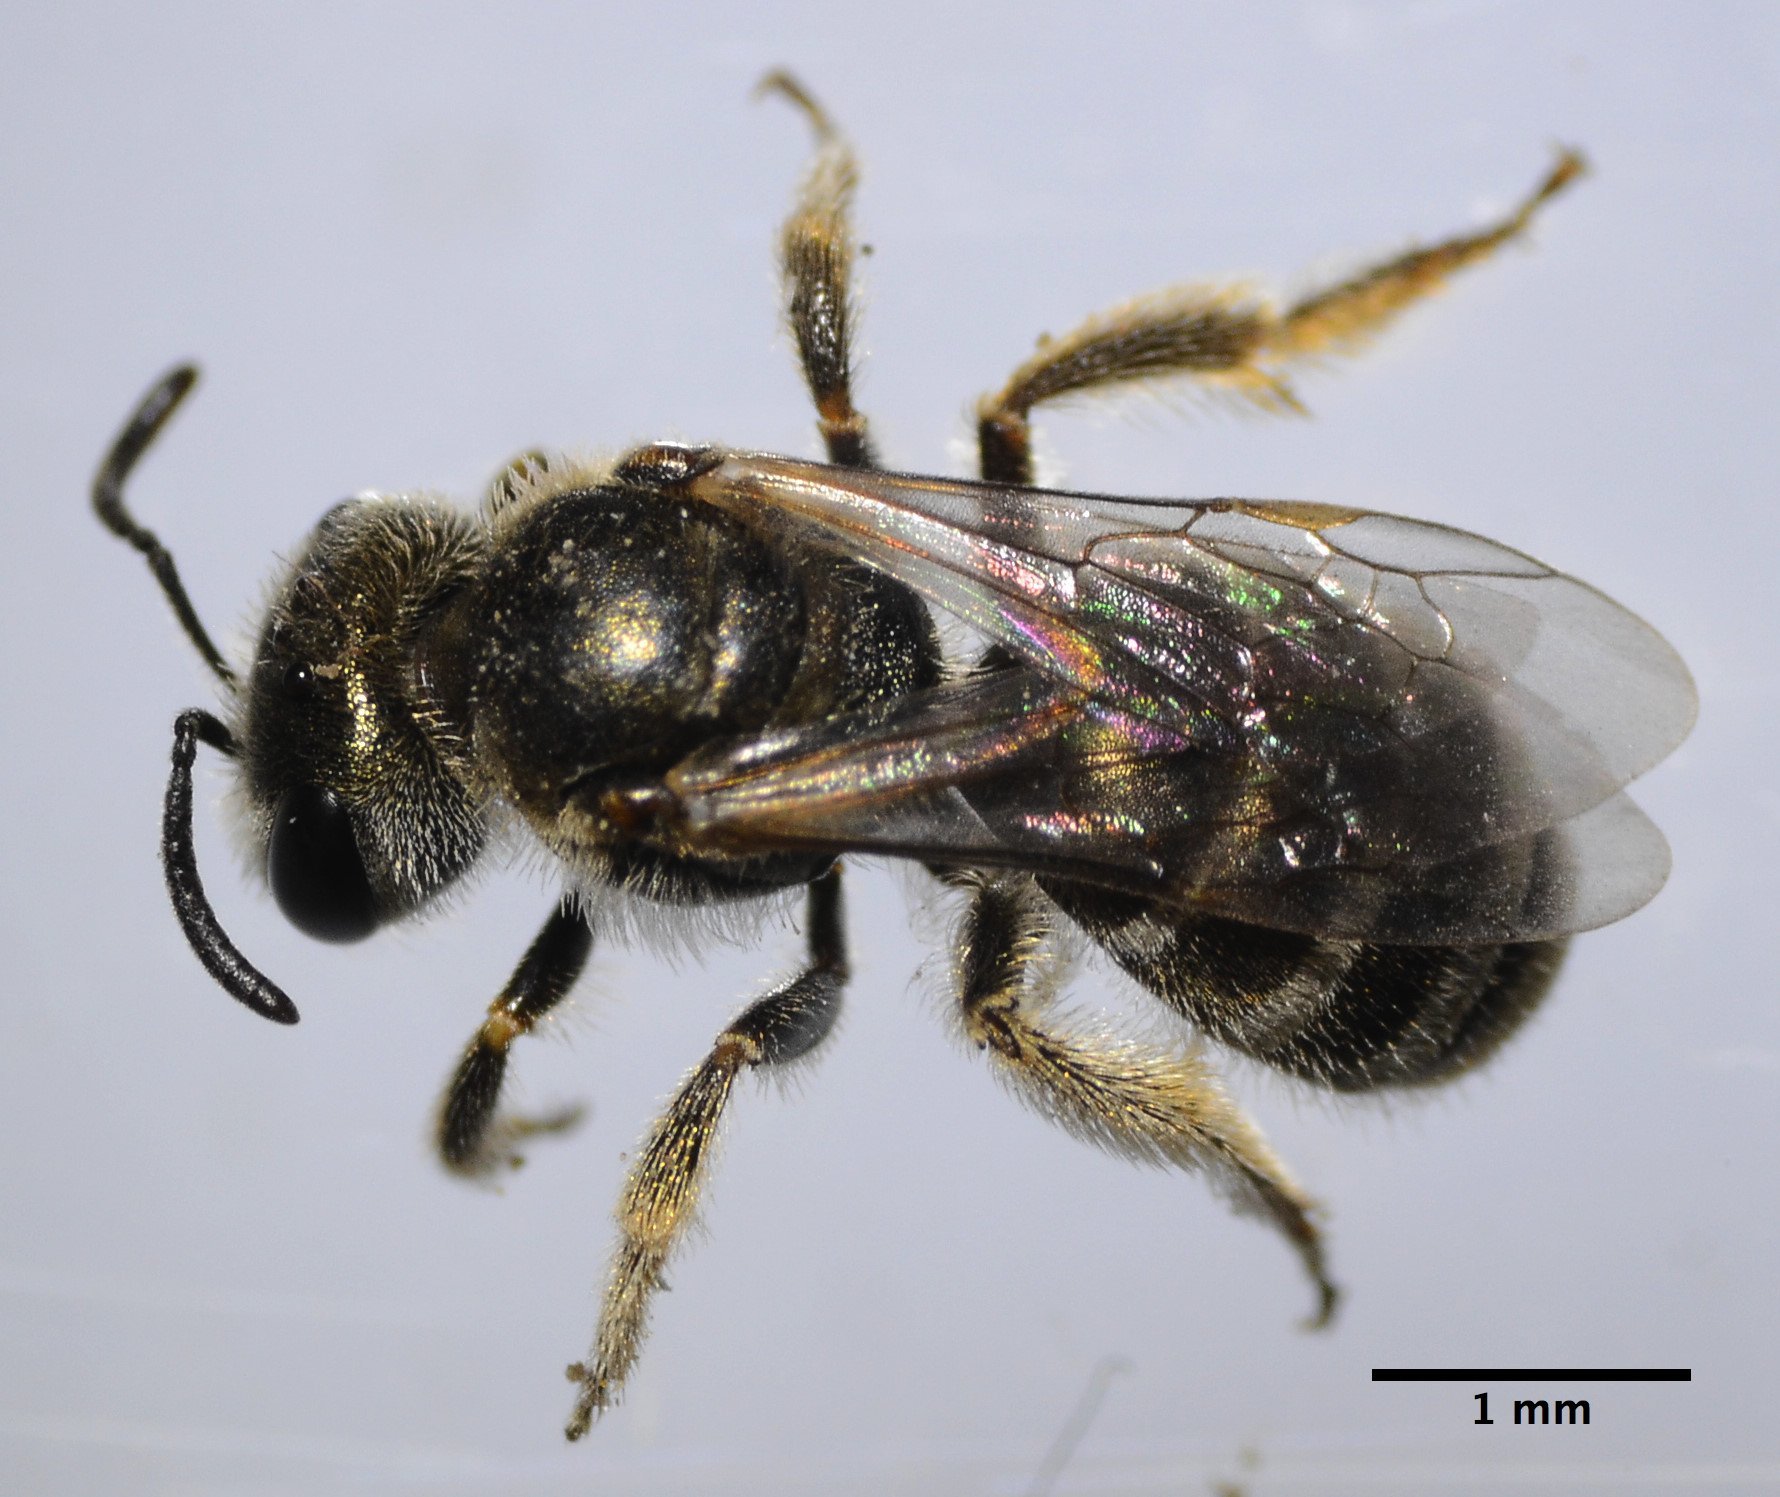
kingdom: Animalia
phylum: Arthropoda
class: Insecta
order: Hymenoptera
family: Halictidae
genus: Halictus
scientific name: Halictus tripartitus
